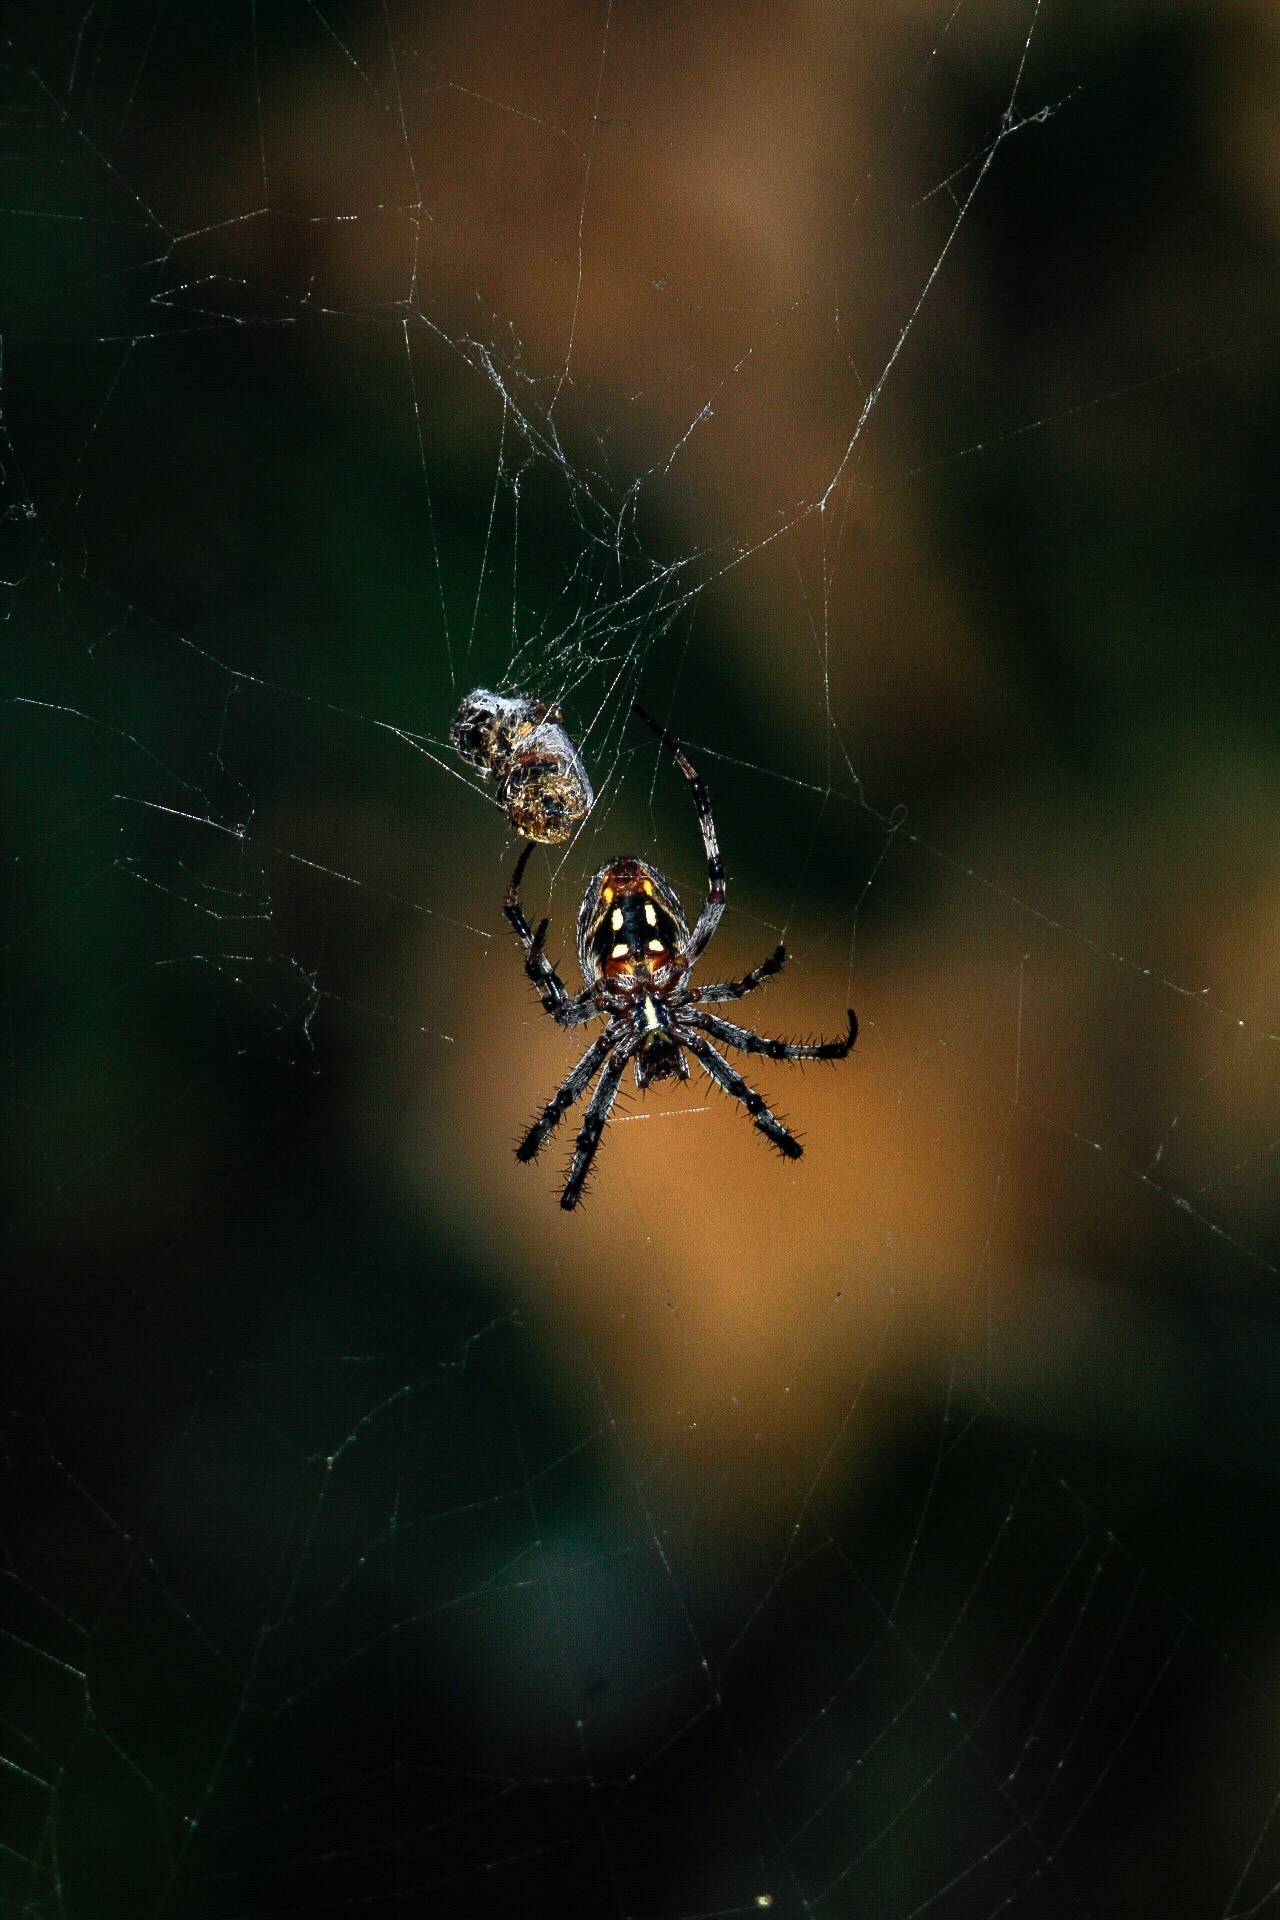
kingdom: Animalia
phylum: Arthropoda
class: Arachnida
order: Araneae
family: Araneidae
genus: Neoscona
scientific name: Neoscona oaxacensis
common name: Orb weavers
